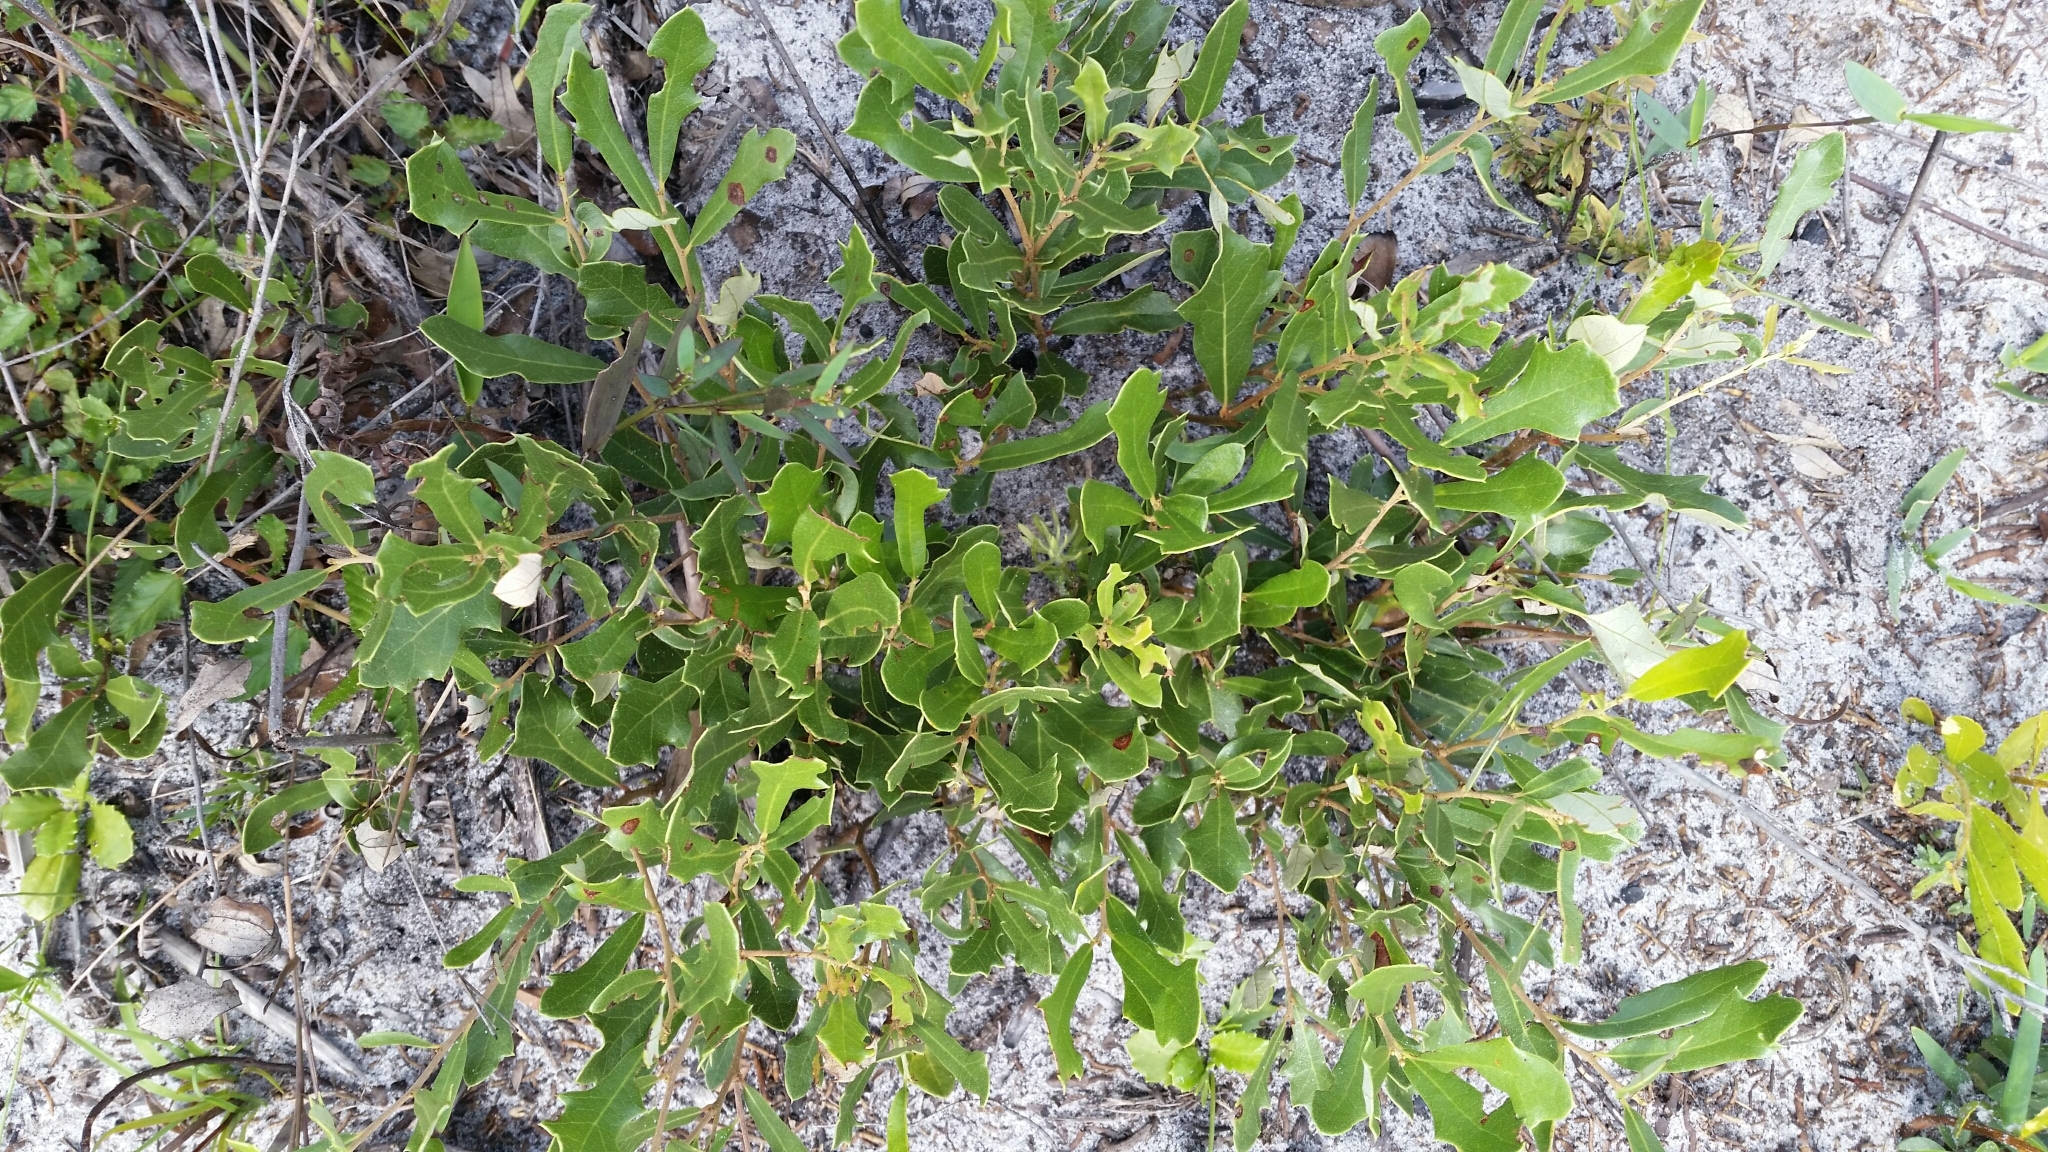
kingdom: Plantae
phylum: Tracheophyta
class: Magnoliopsida
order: Fagales
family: Fagaceae
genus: Quercus
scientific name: Quercus minima
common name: Dwarf live oak
